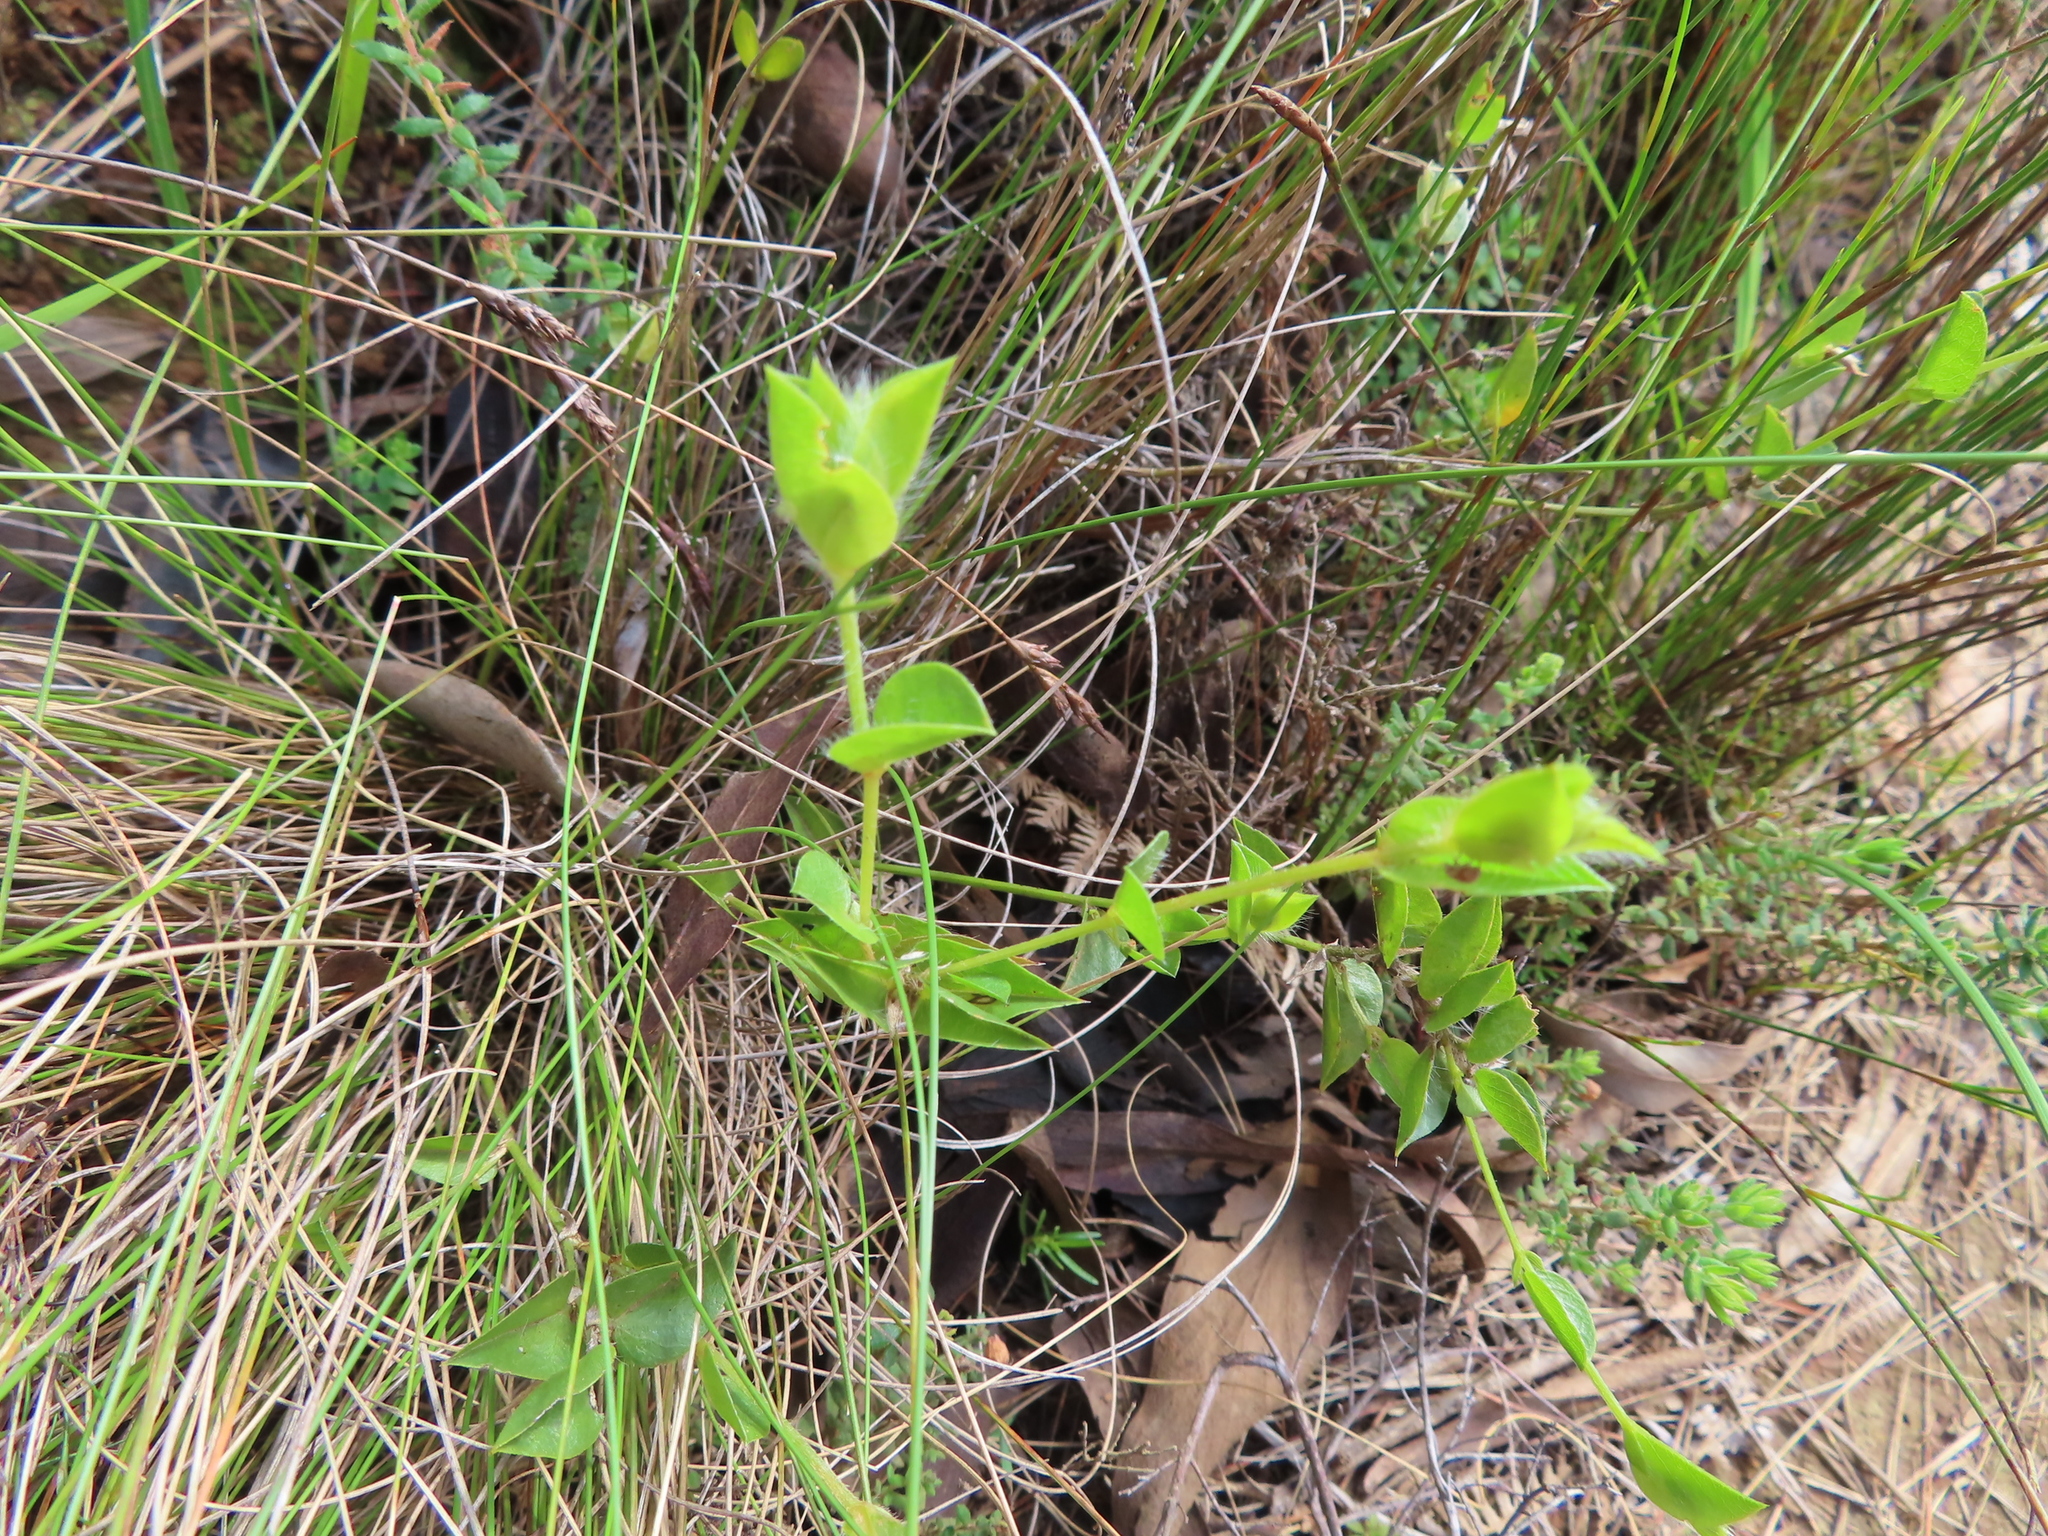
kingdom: Plantae
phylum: Tracheophyta
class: Magnoliopsida
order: Fabales
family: Fabaceae
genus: Psoralea
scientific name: Psoralea imbricata
